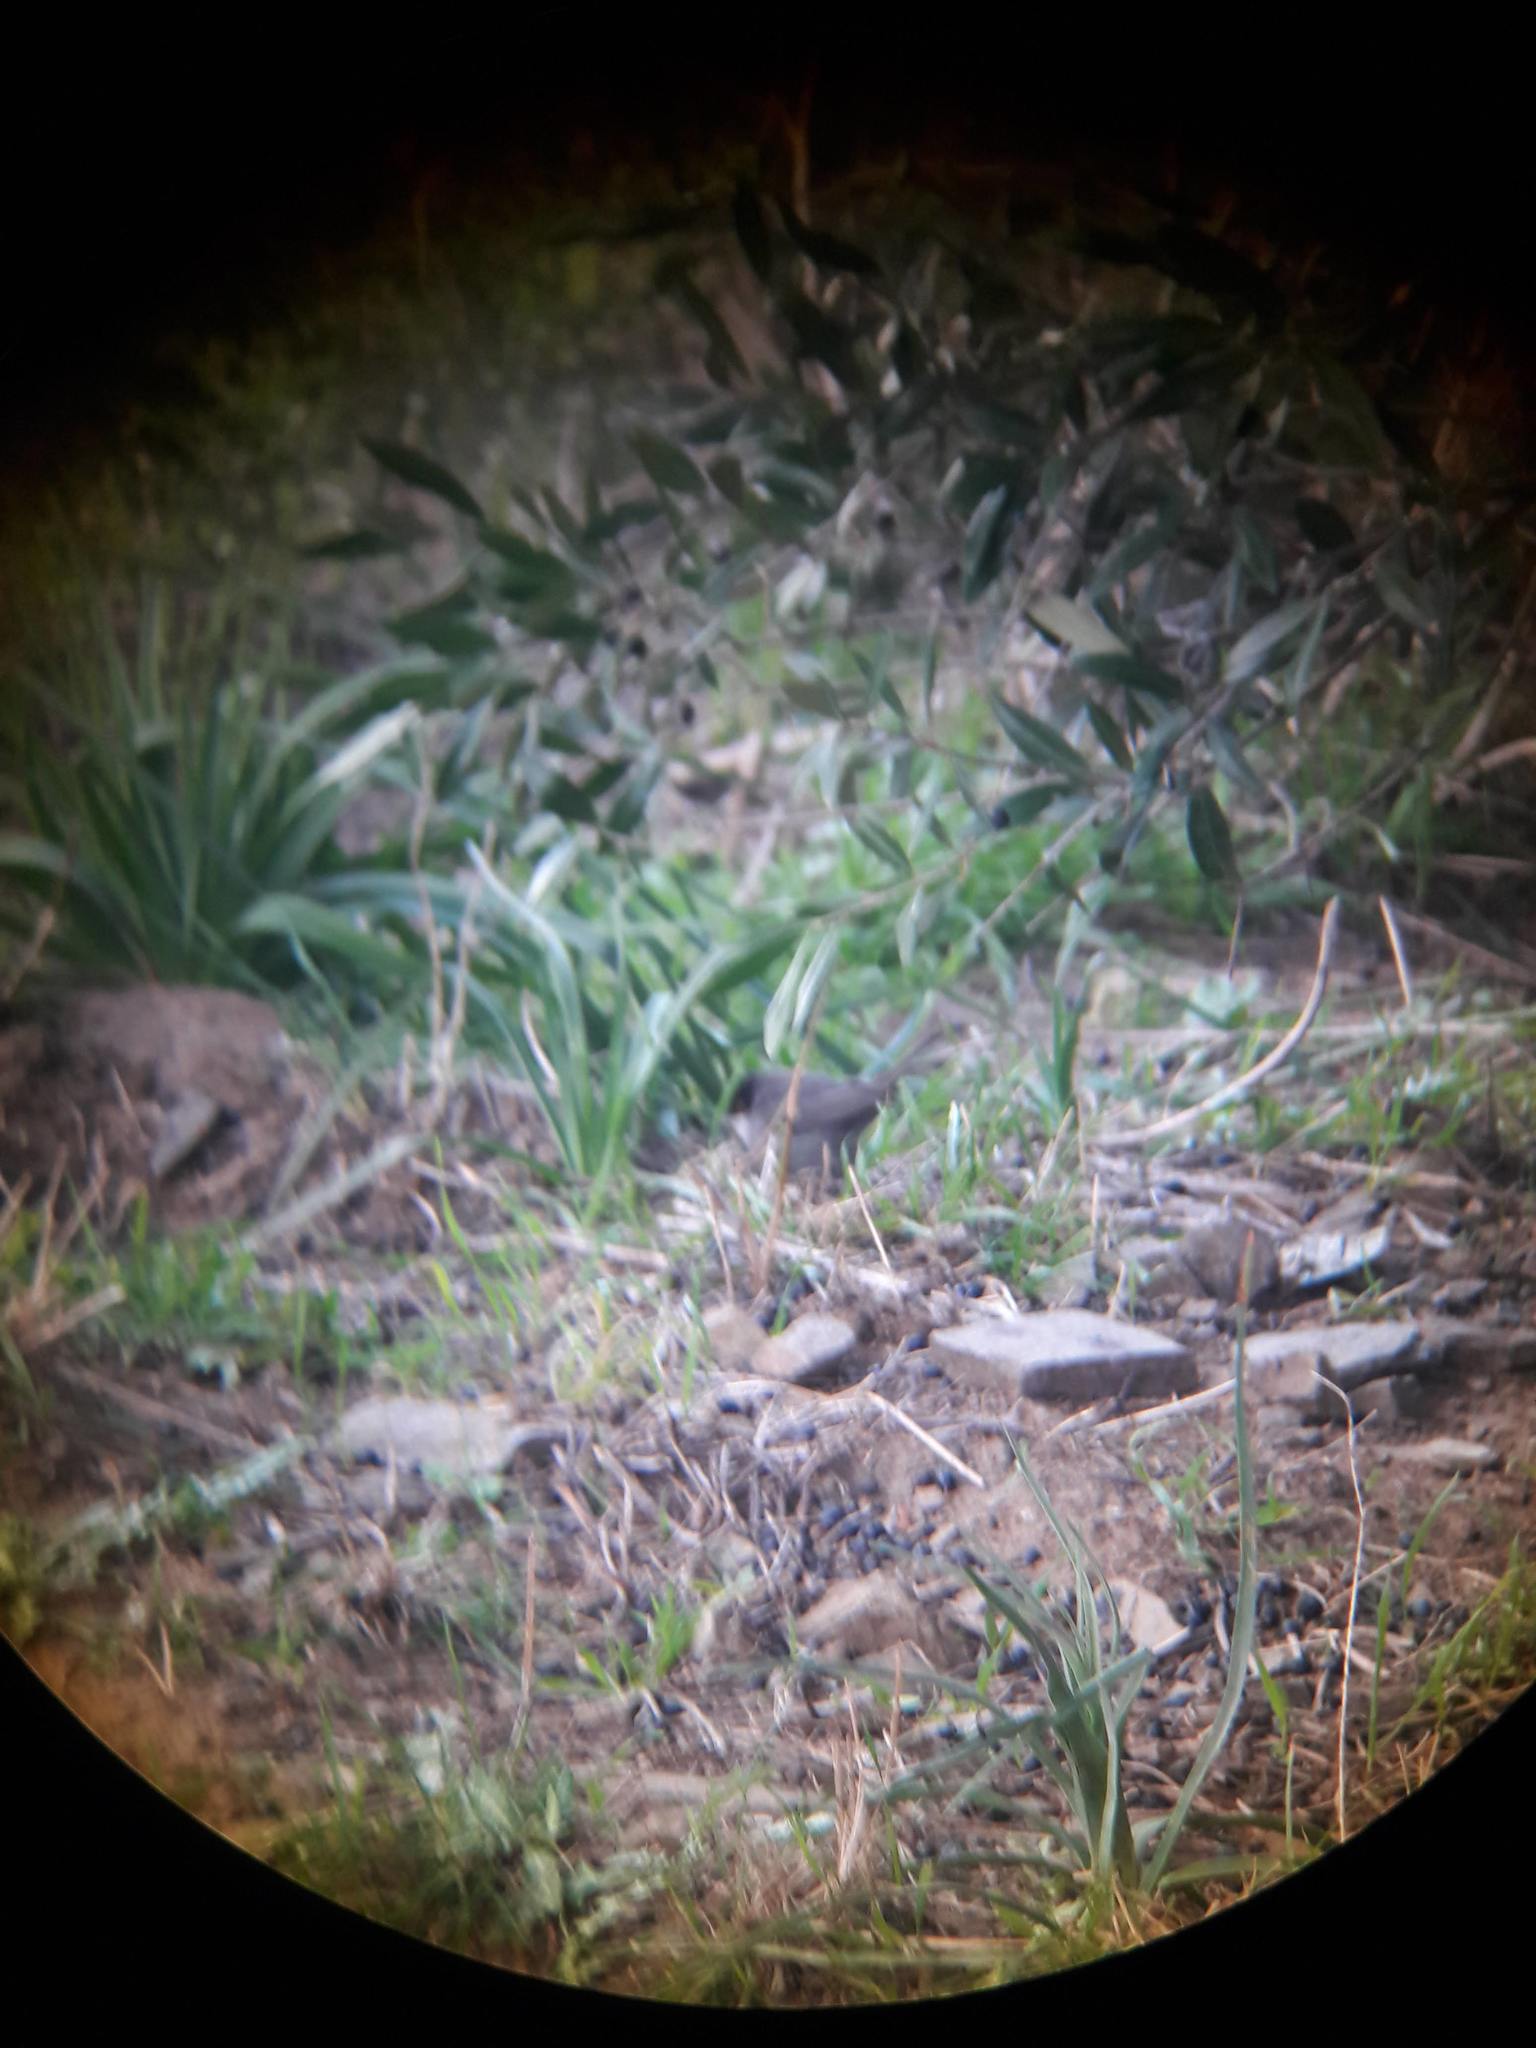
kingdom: Animalia
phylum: Chordata
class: Aves
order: Passeriformes
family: Sylviidae
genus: Curruca
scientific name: Curruca melanocephala
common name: Sardinian warbler
